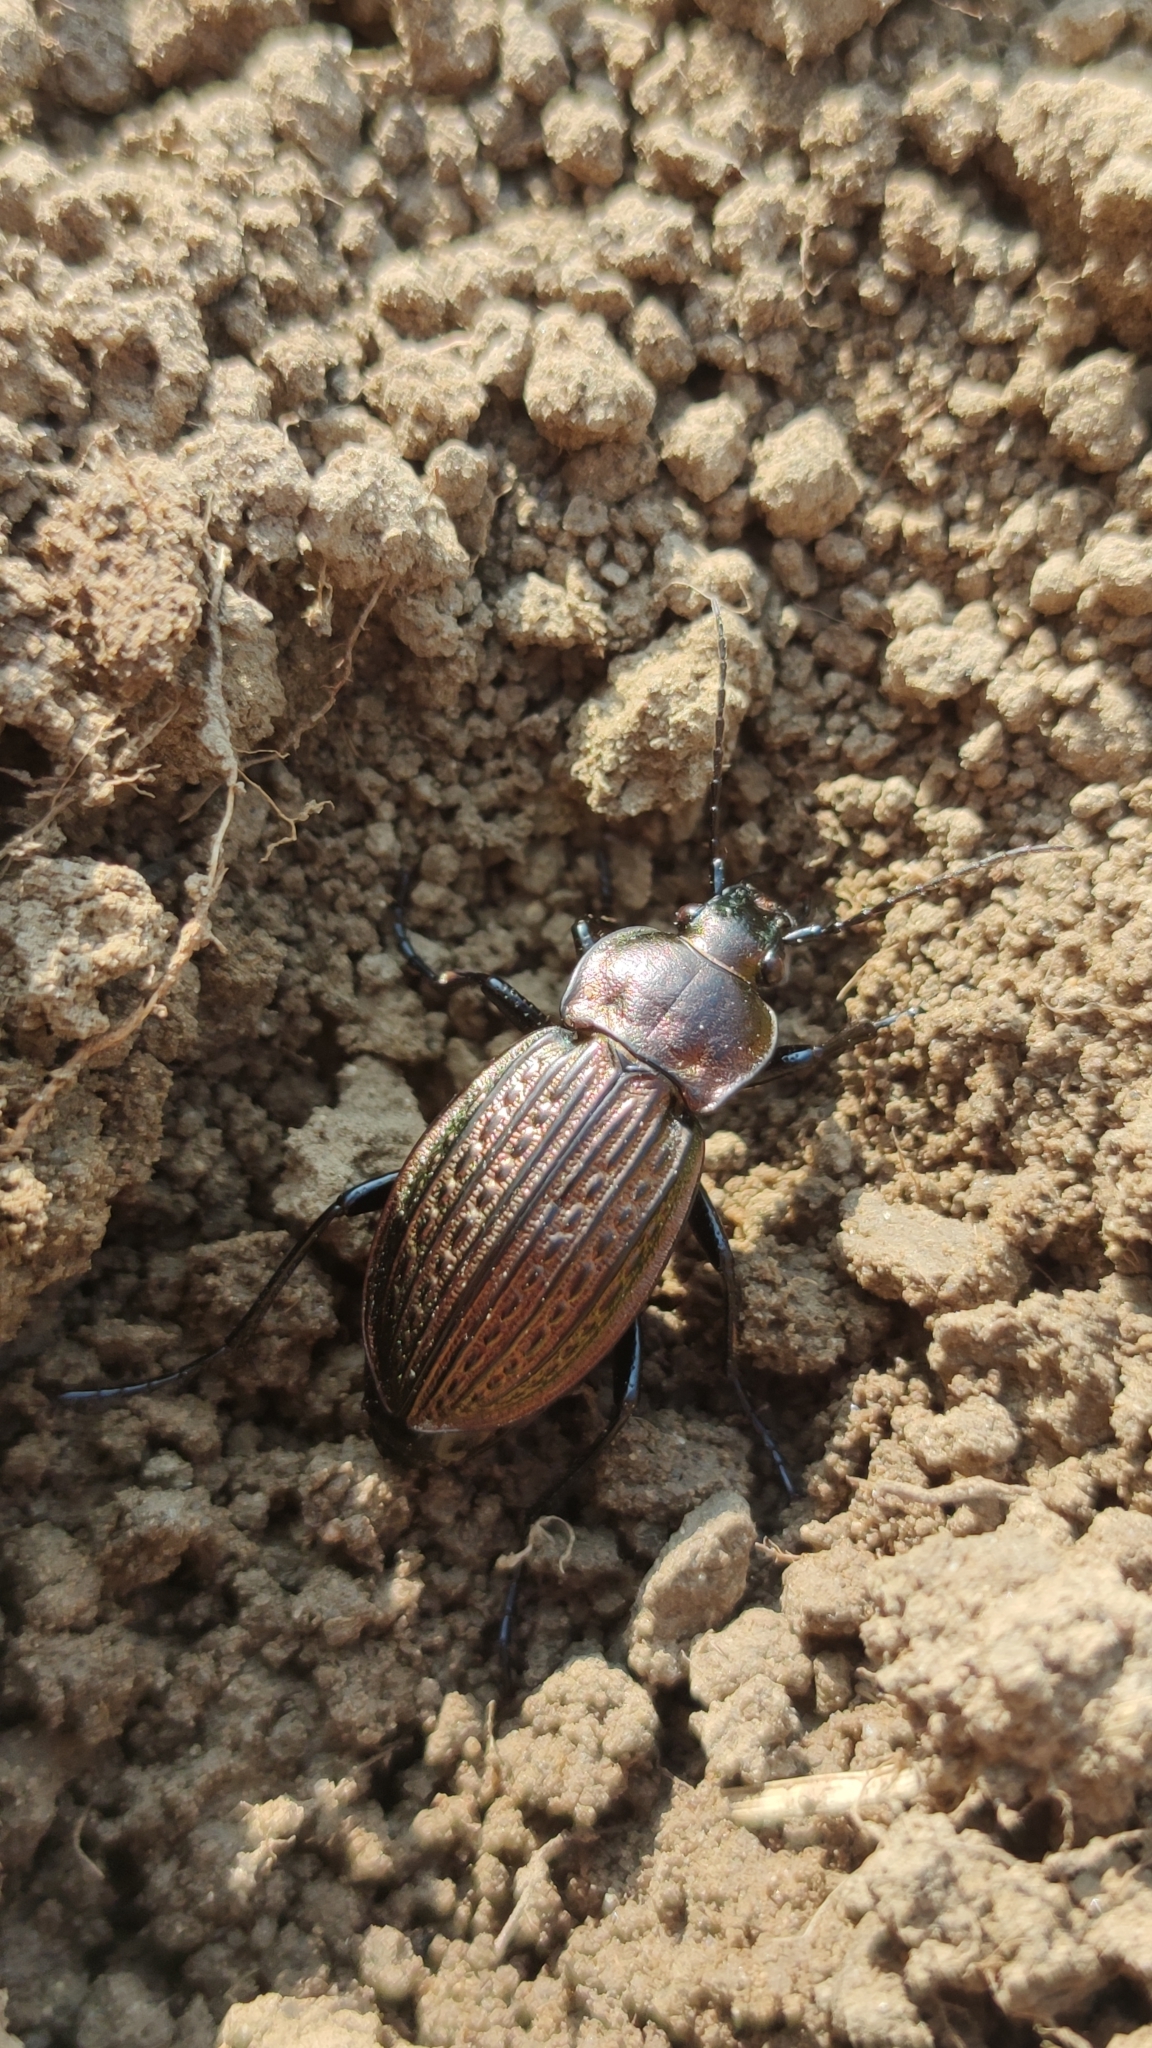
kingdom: Animalia
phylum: Arthropoda
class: Insecta
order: Coleoptera
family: Carabidae
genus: Carabus
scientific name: Carabus ulrichii
